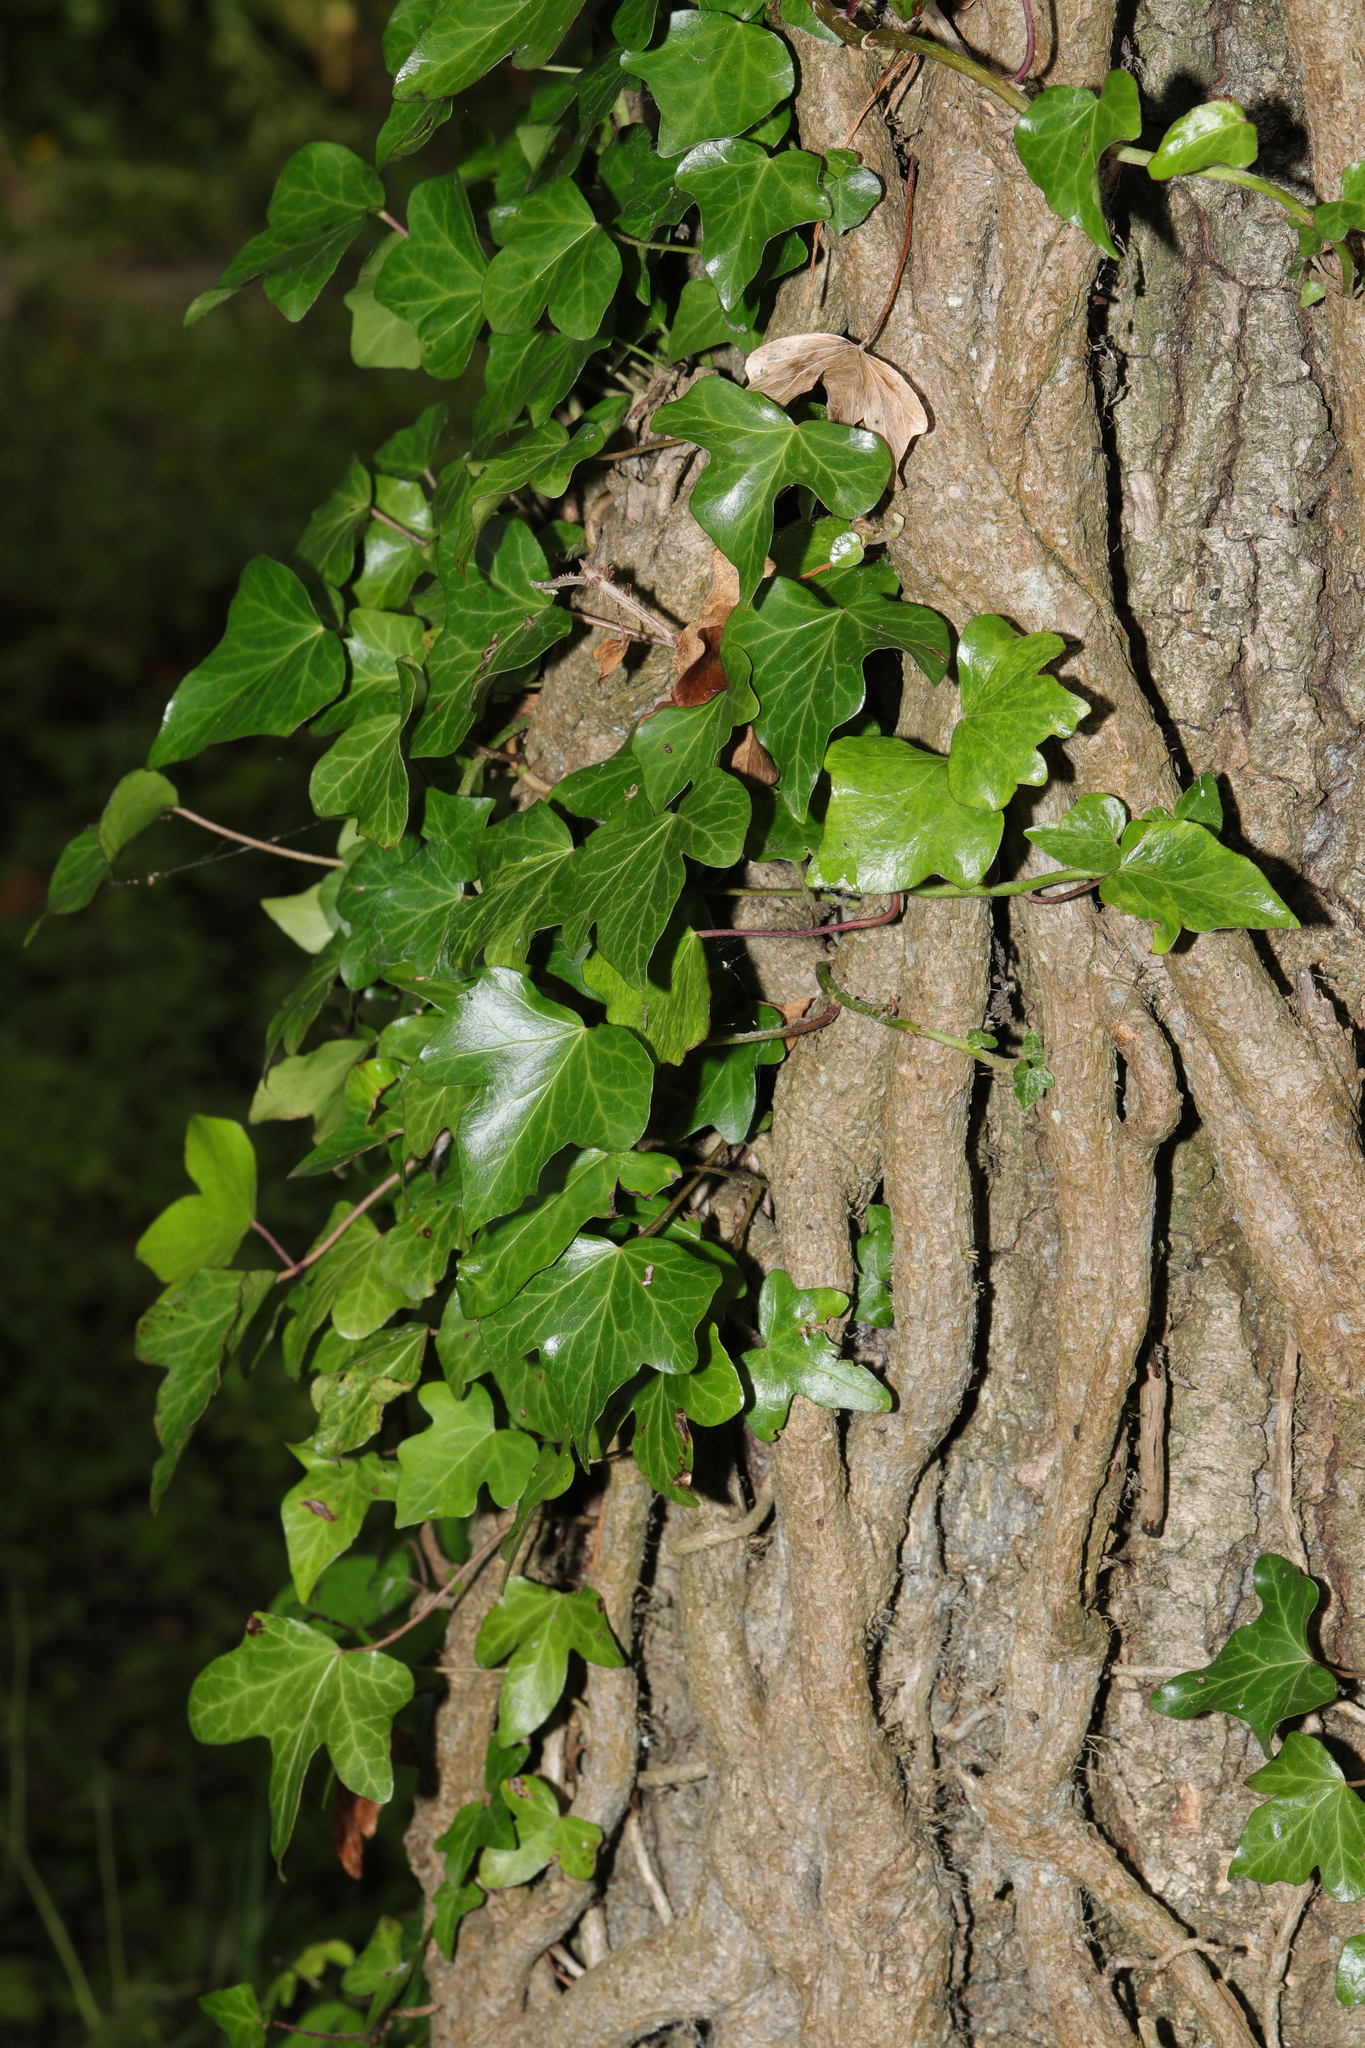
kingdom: Plantae
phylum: Tracheophyta
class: Magnoliopsida
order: Apiales
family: Araliaceae
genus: Hedera
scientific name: Hedera helix
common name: Ivy
